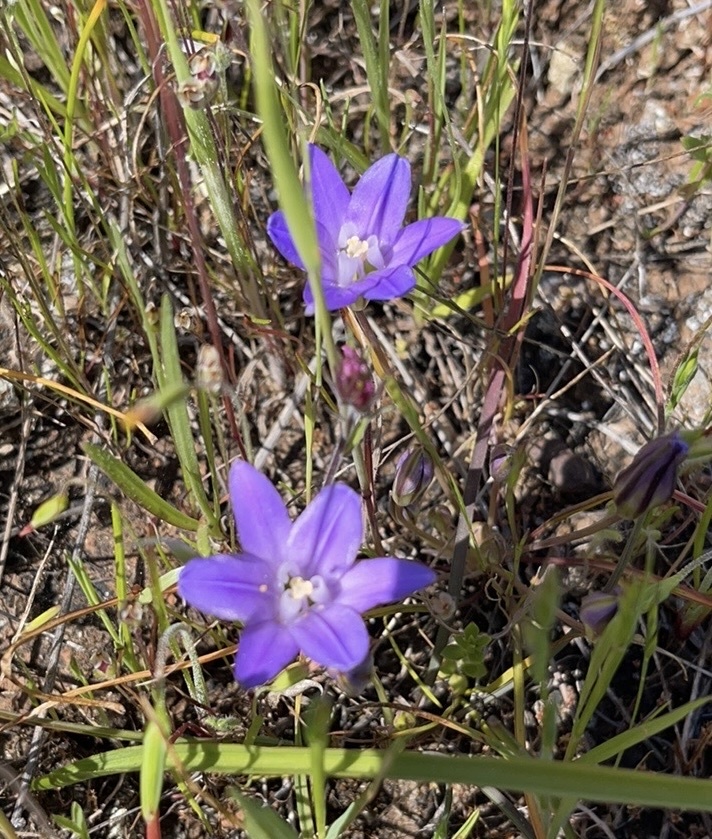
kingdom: Plantae
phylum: Tracheophyta
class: Liliopsida
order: Asparagales
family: Asparagaceae
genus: Brodiaea
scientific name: Brodiaea terrestris
